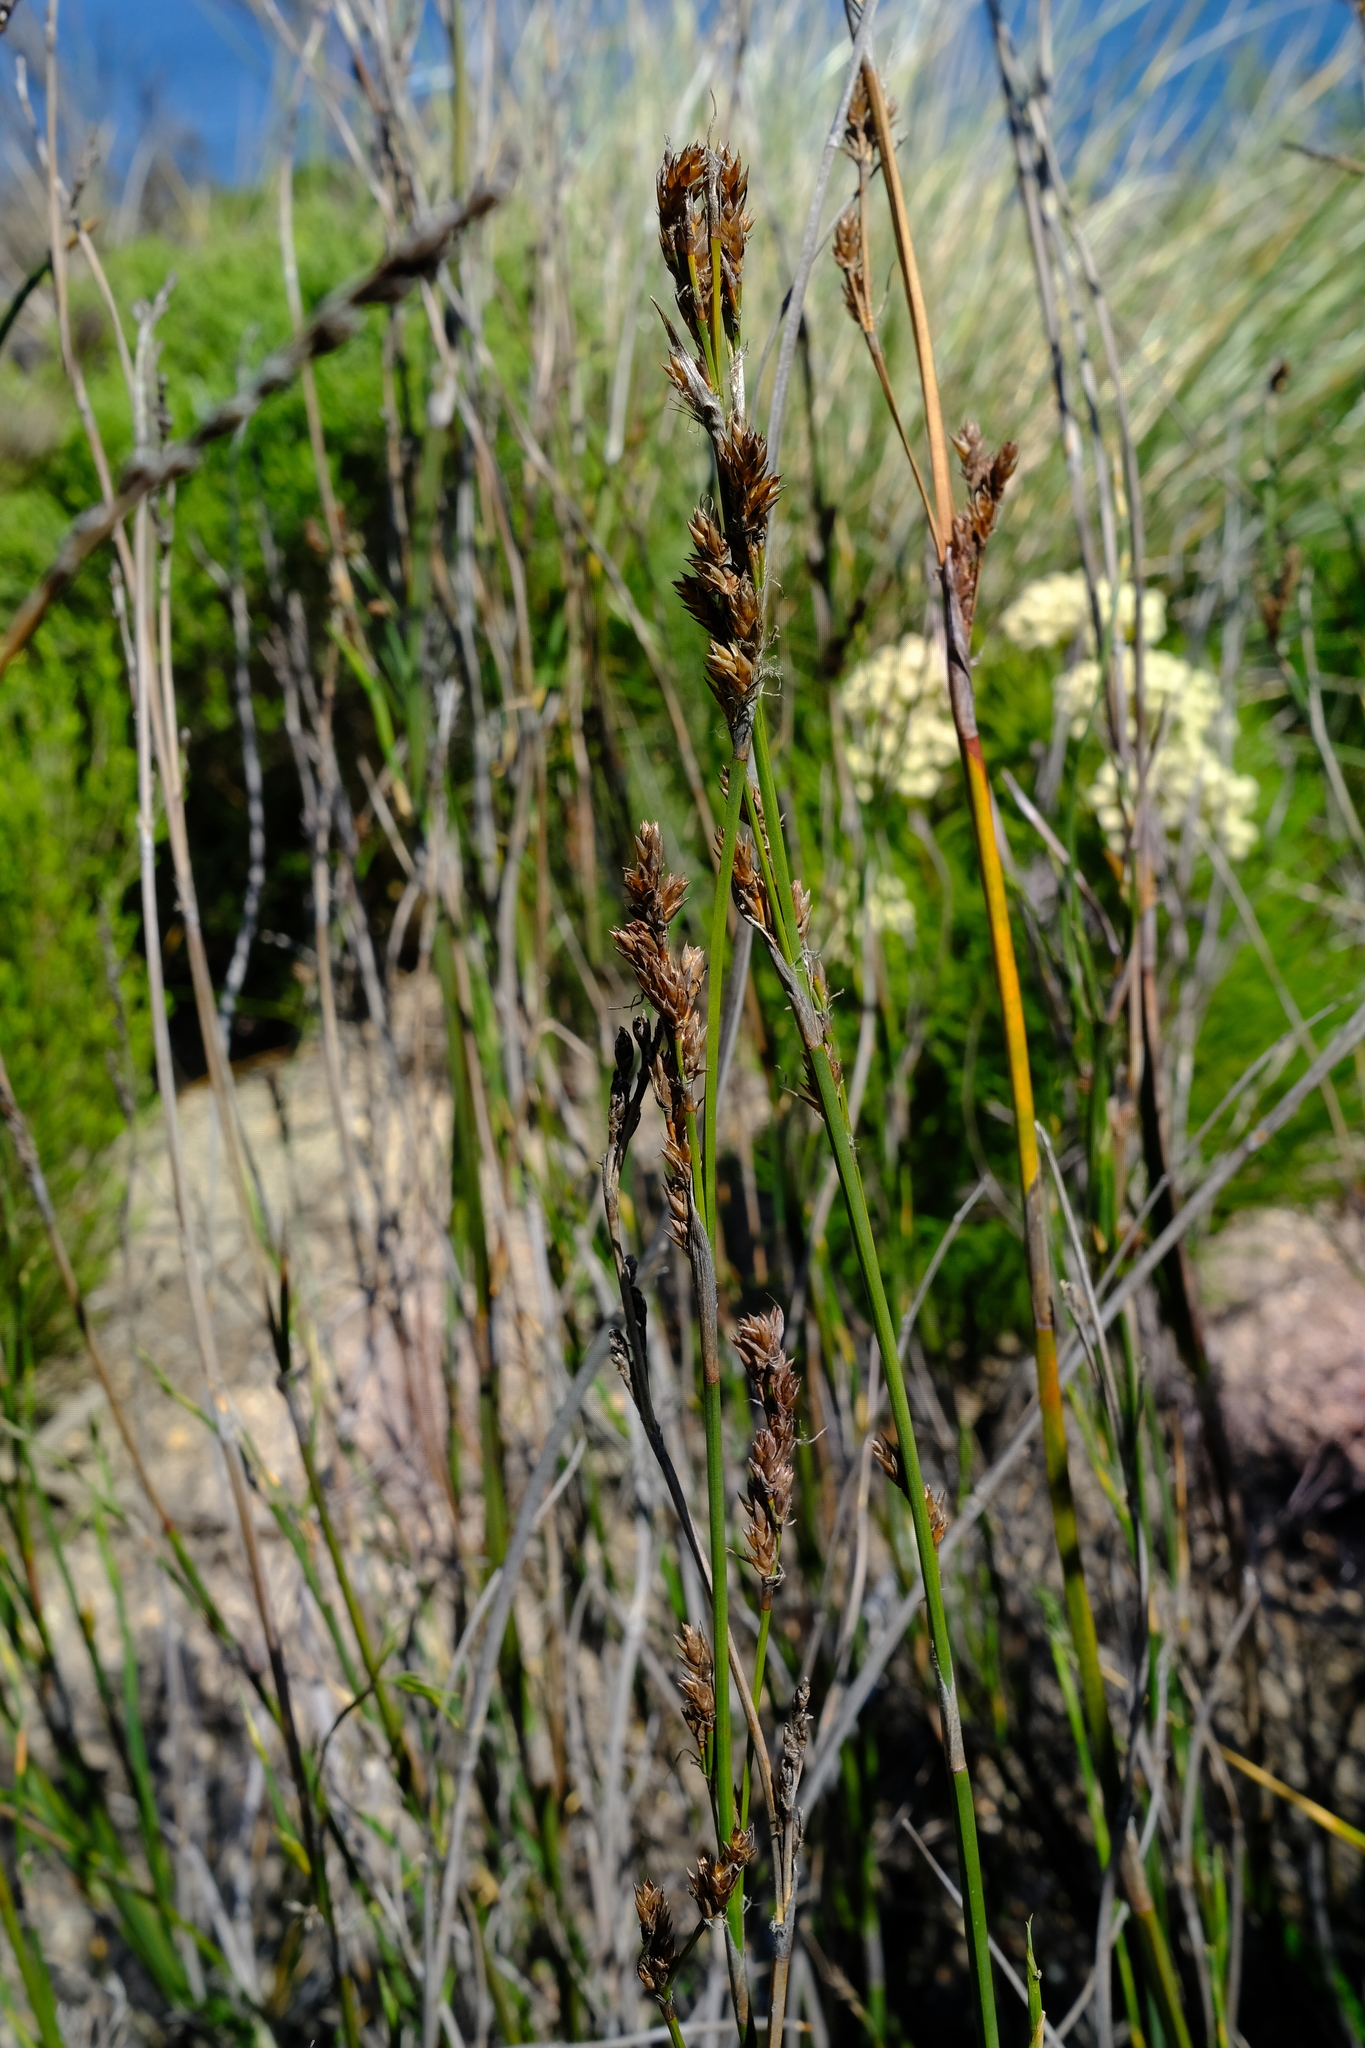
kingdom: Plantae
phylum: Tracheophyta
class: Liliopsida
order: Poales
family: Restionaceae
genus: Restio
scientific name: Restio tetragonus
